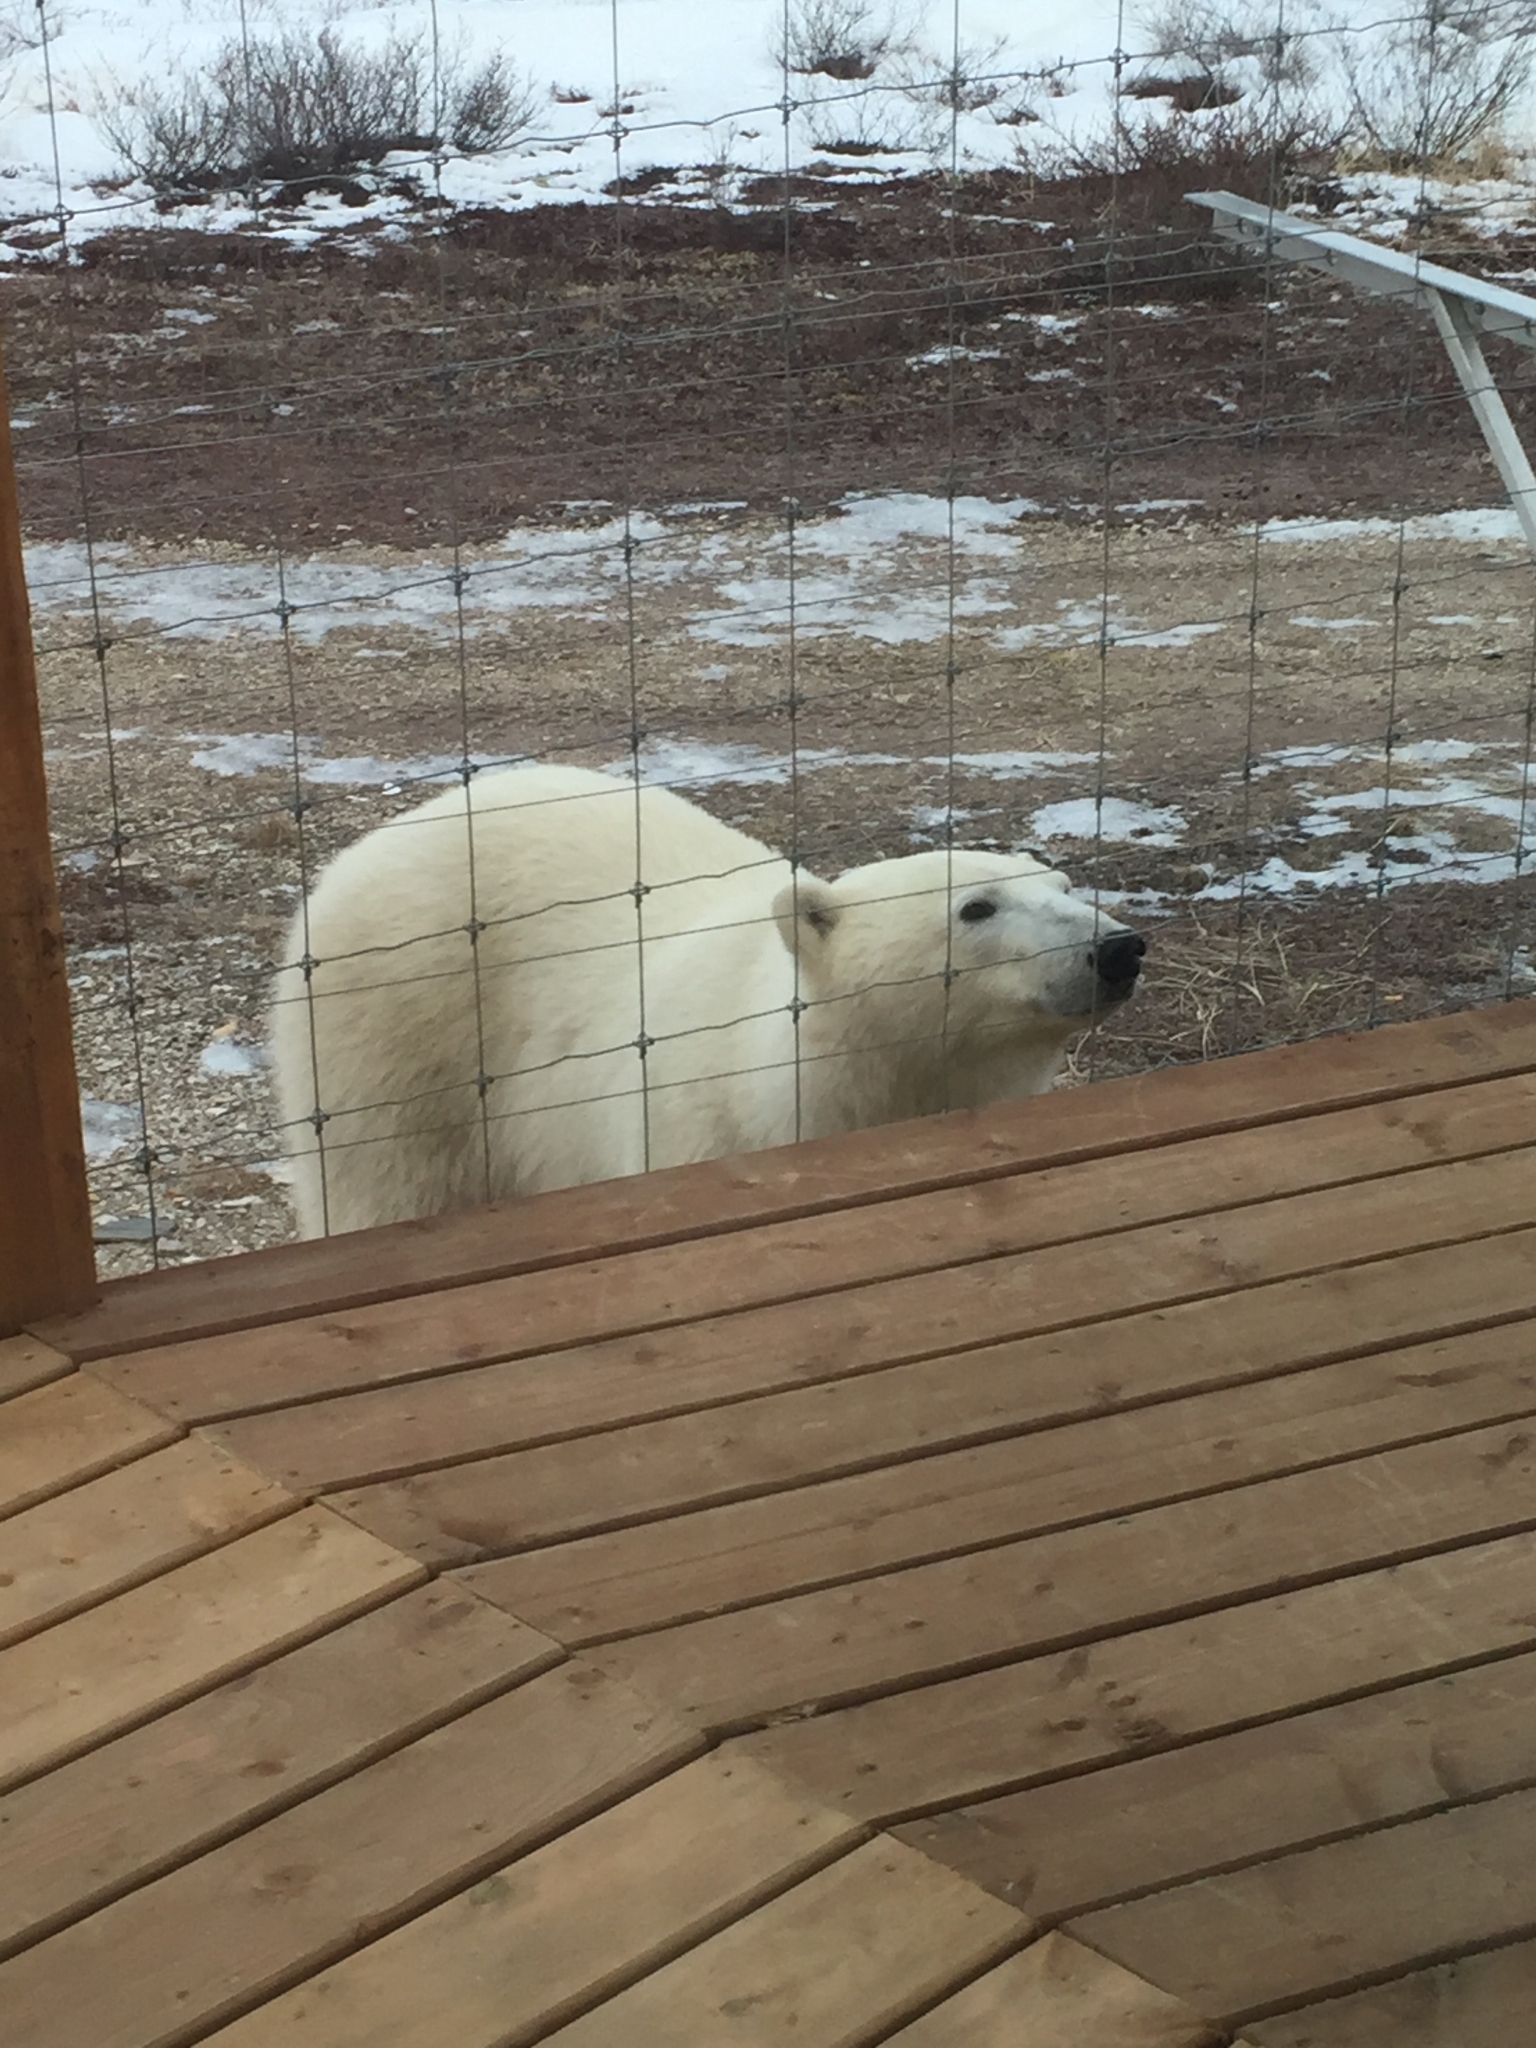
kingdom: Animalia
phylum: Chordata
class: Mammalia
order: Carnivora
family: Ursidae
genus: Ursus
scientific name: Ursus maritimus
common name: Polar bear
